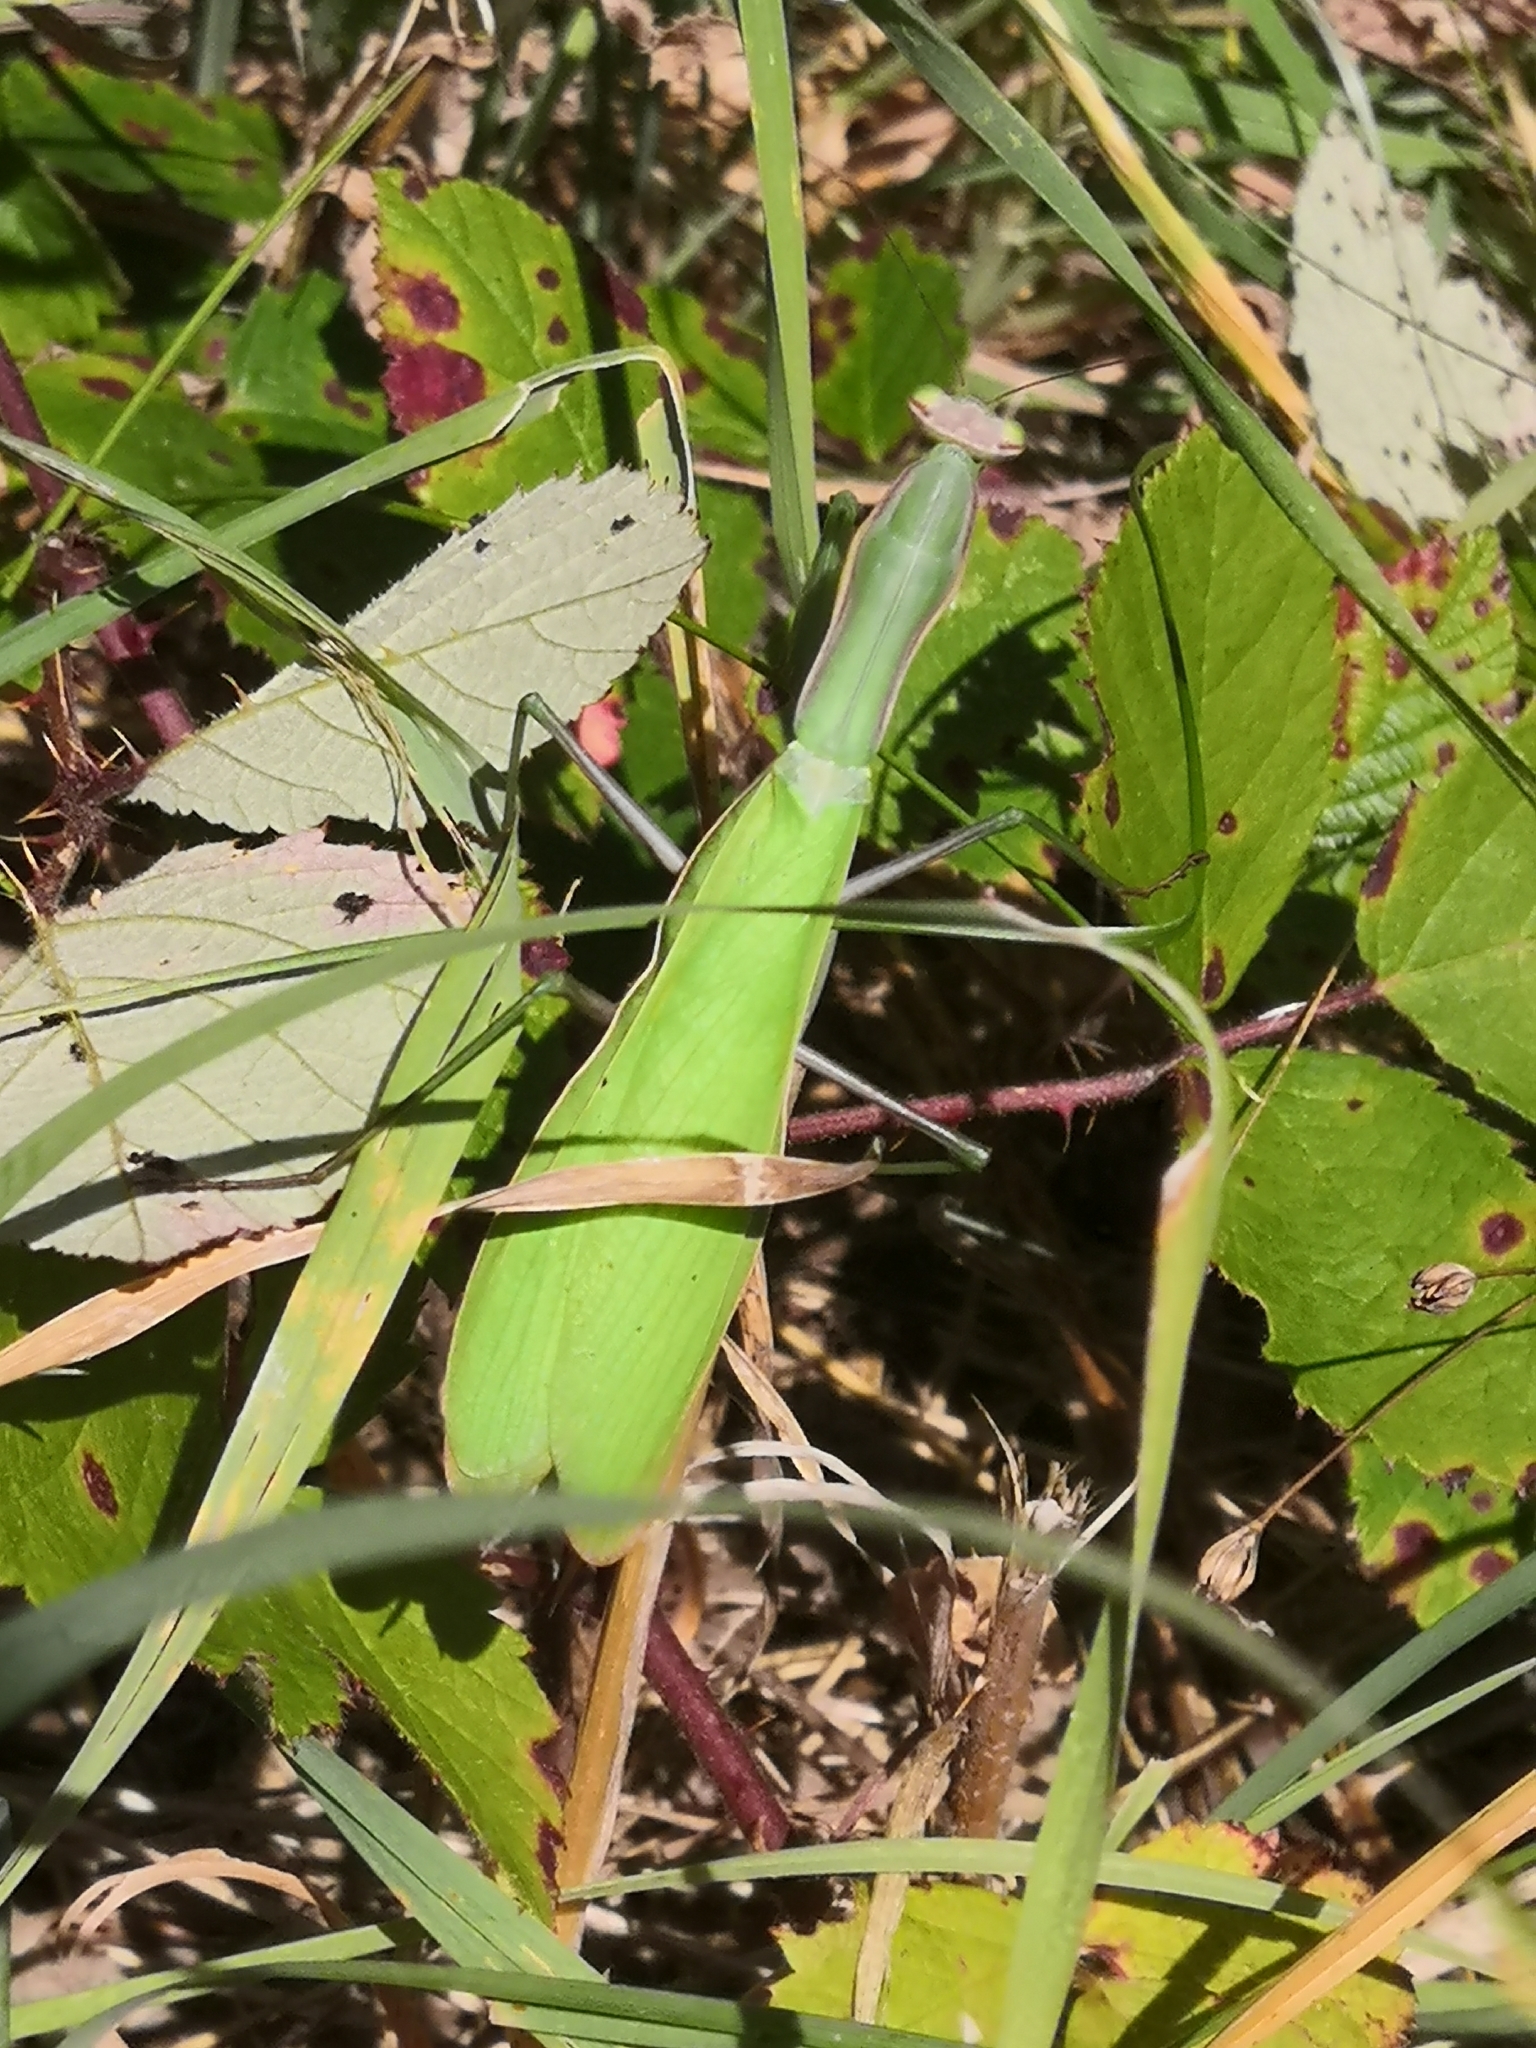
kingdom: Animalia
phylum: Arthropoda
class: Insecta
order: Mantodea
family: Mantidae
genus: Mantis
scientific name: Mantis religiosa
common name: Praying mantis
